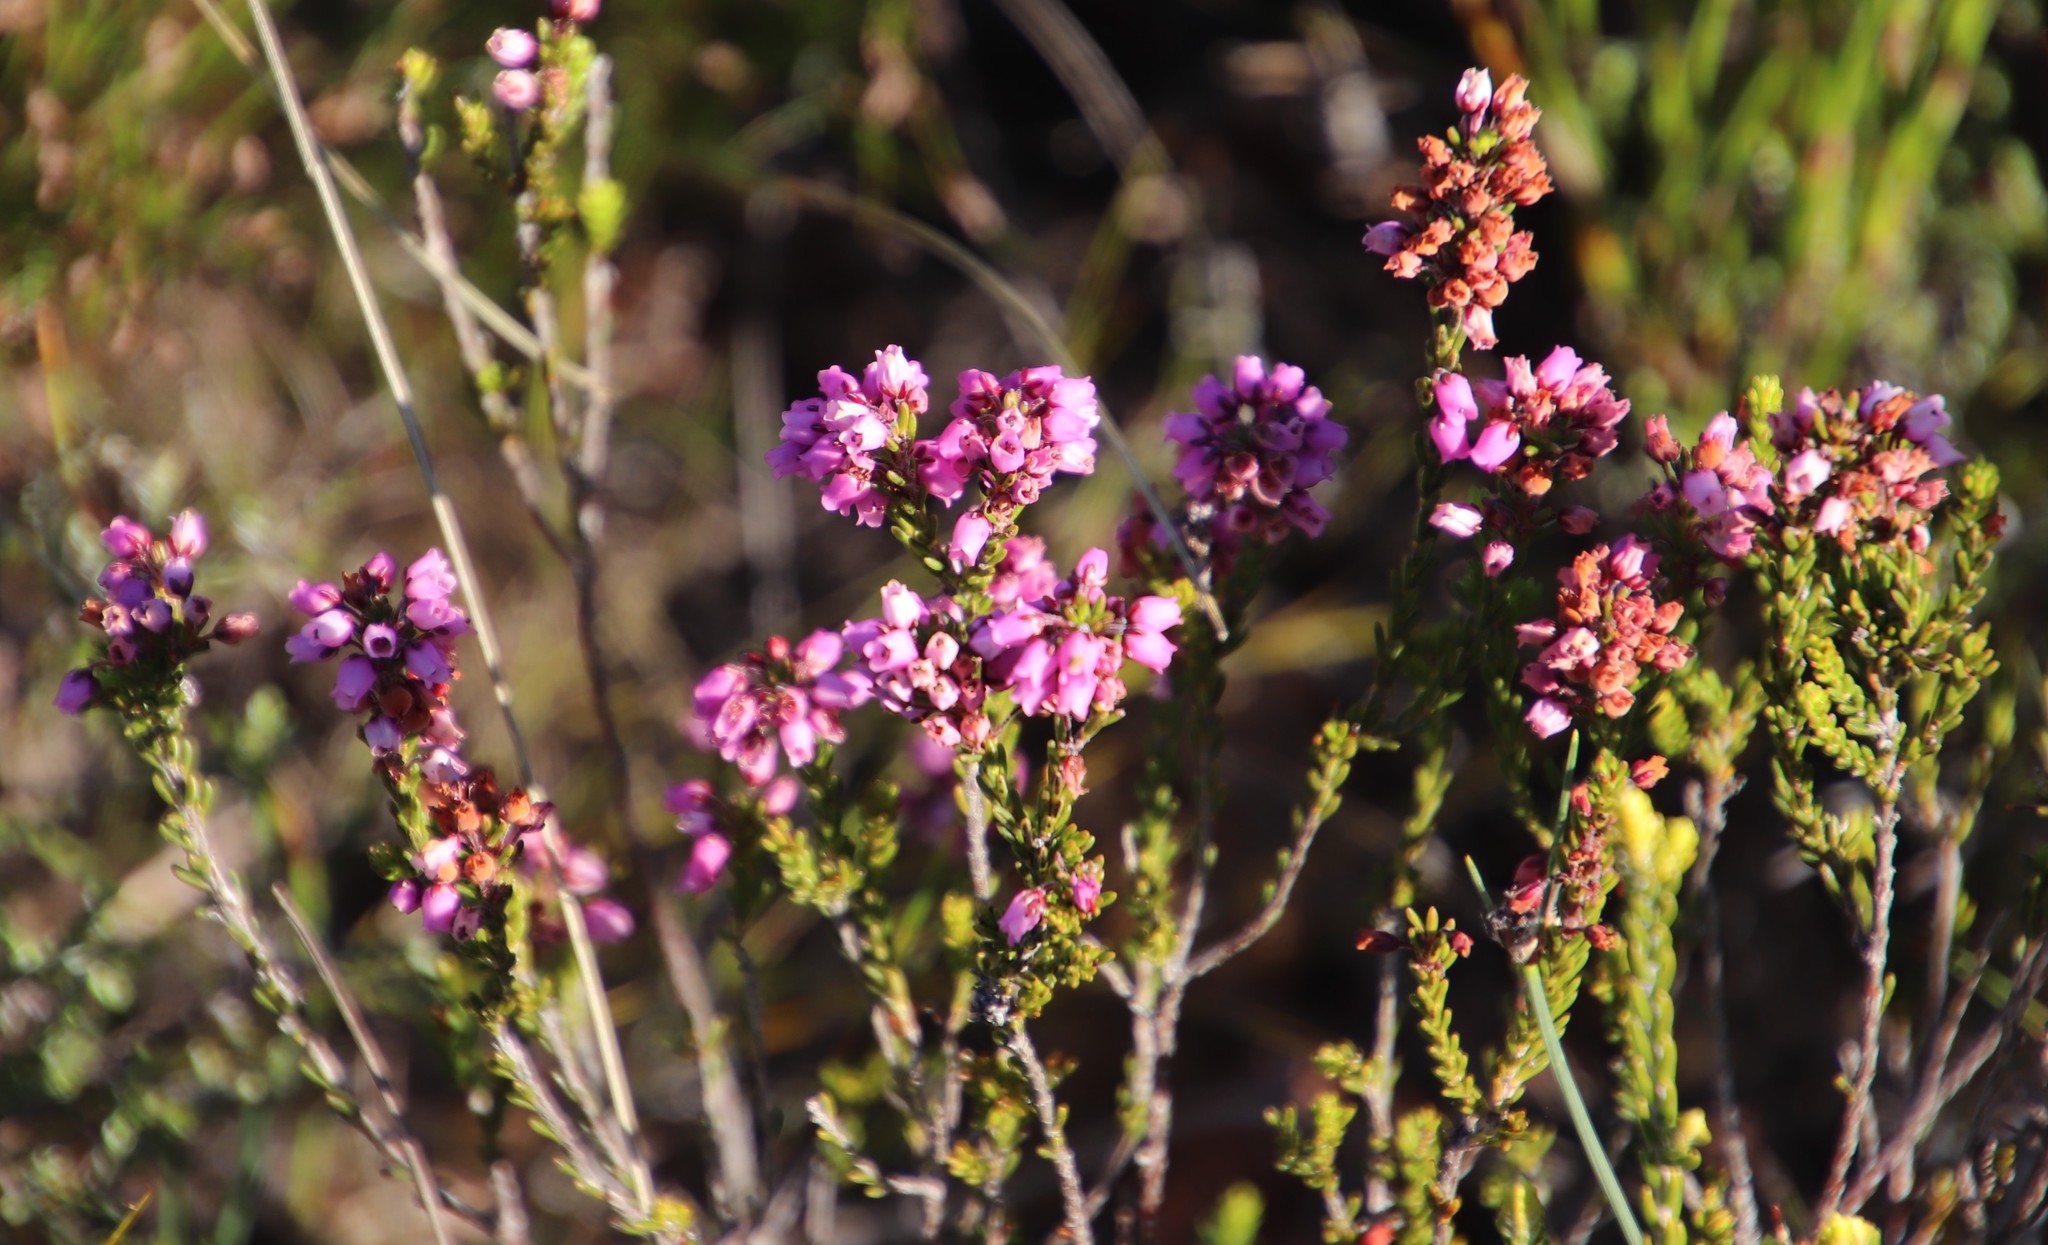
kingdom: Plantae
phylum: Tracheophyta
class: Magnoliopsida
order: Ericales
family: Ericaceae
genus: Erica
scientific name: Erica pulchella
